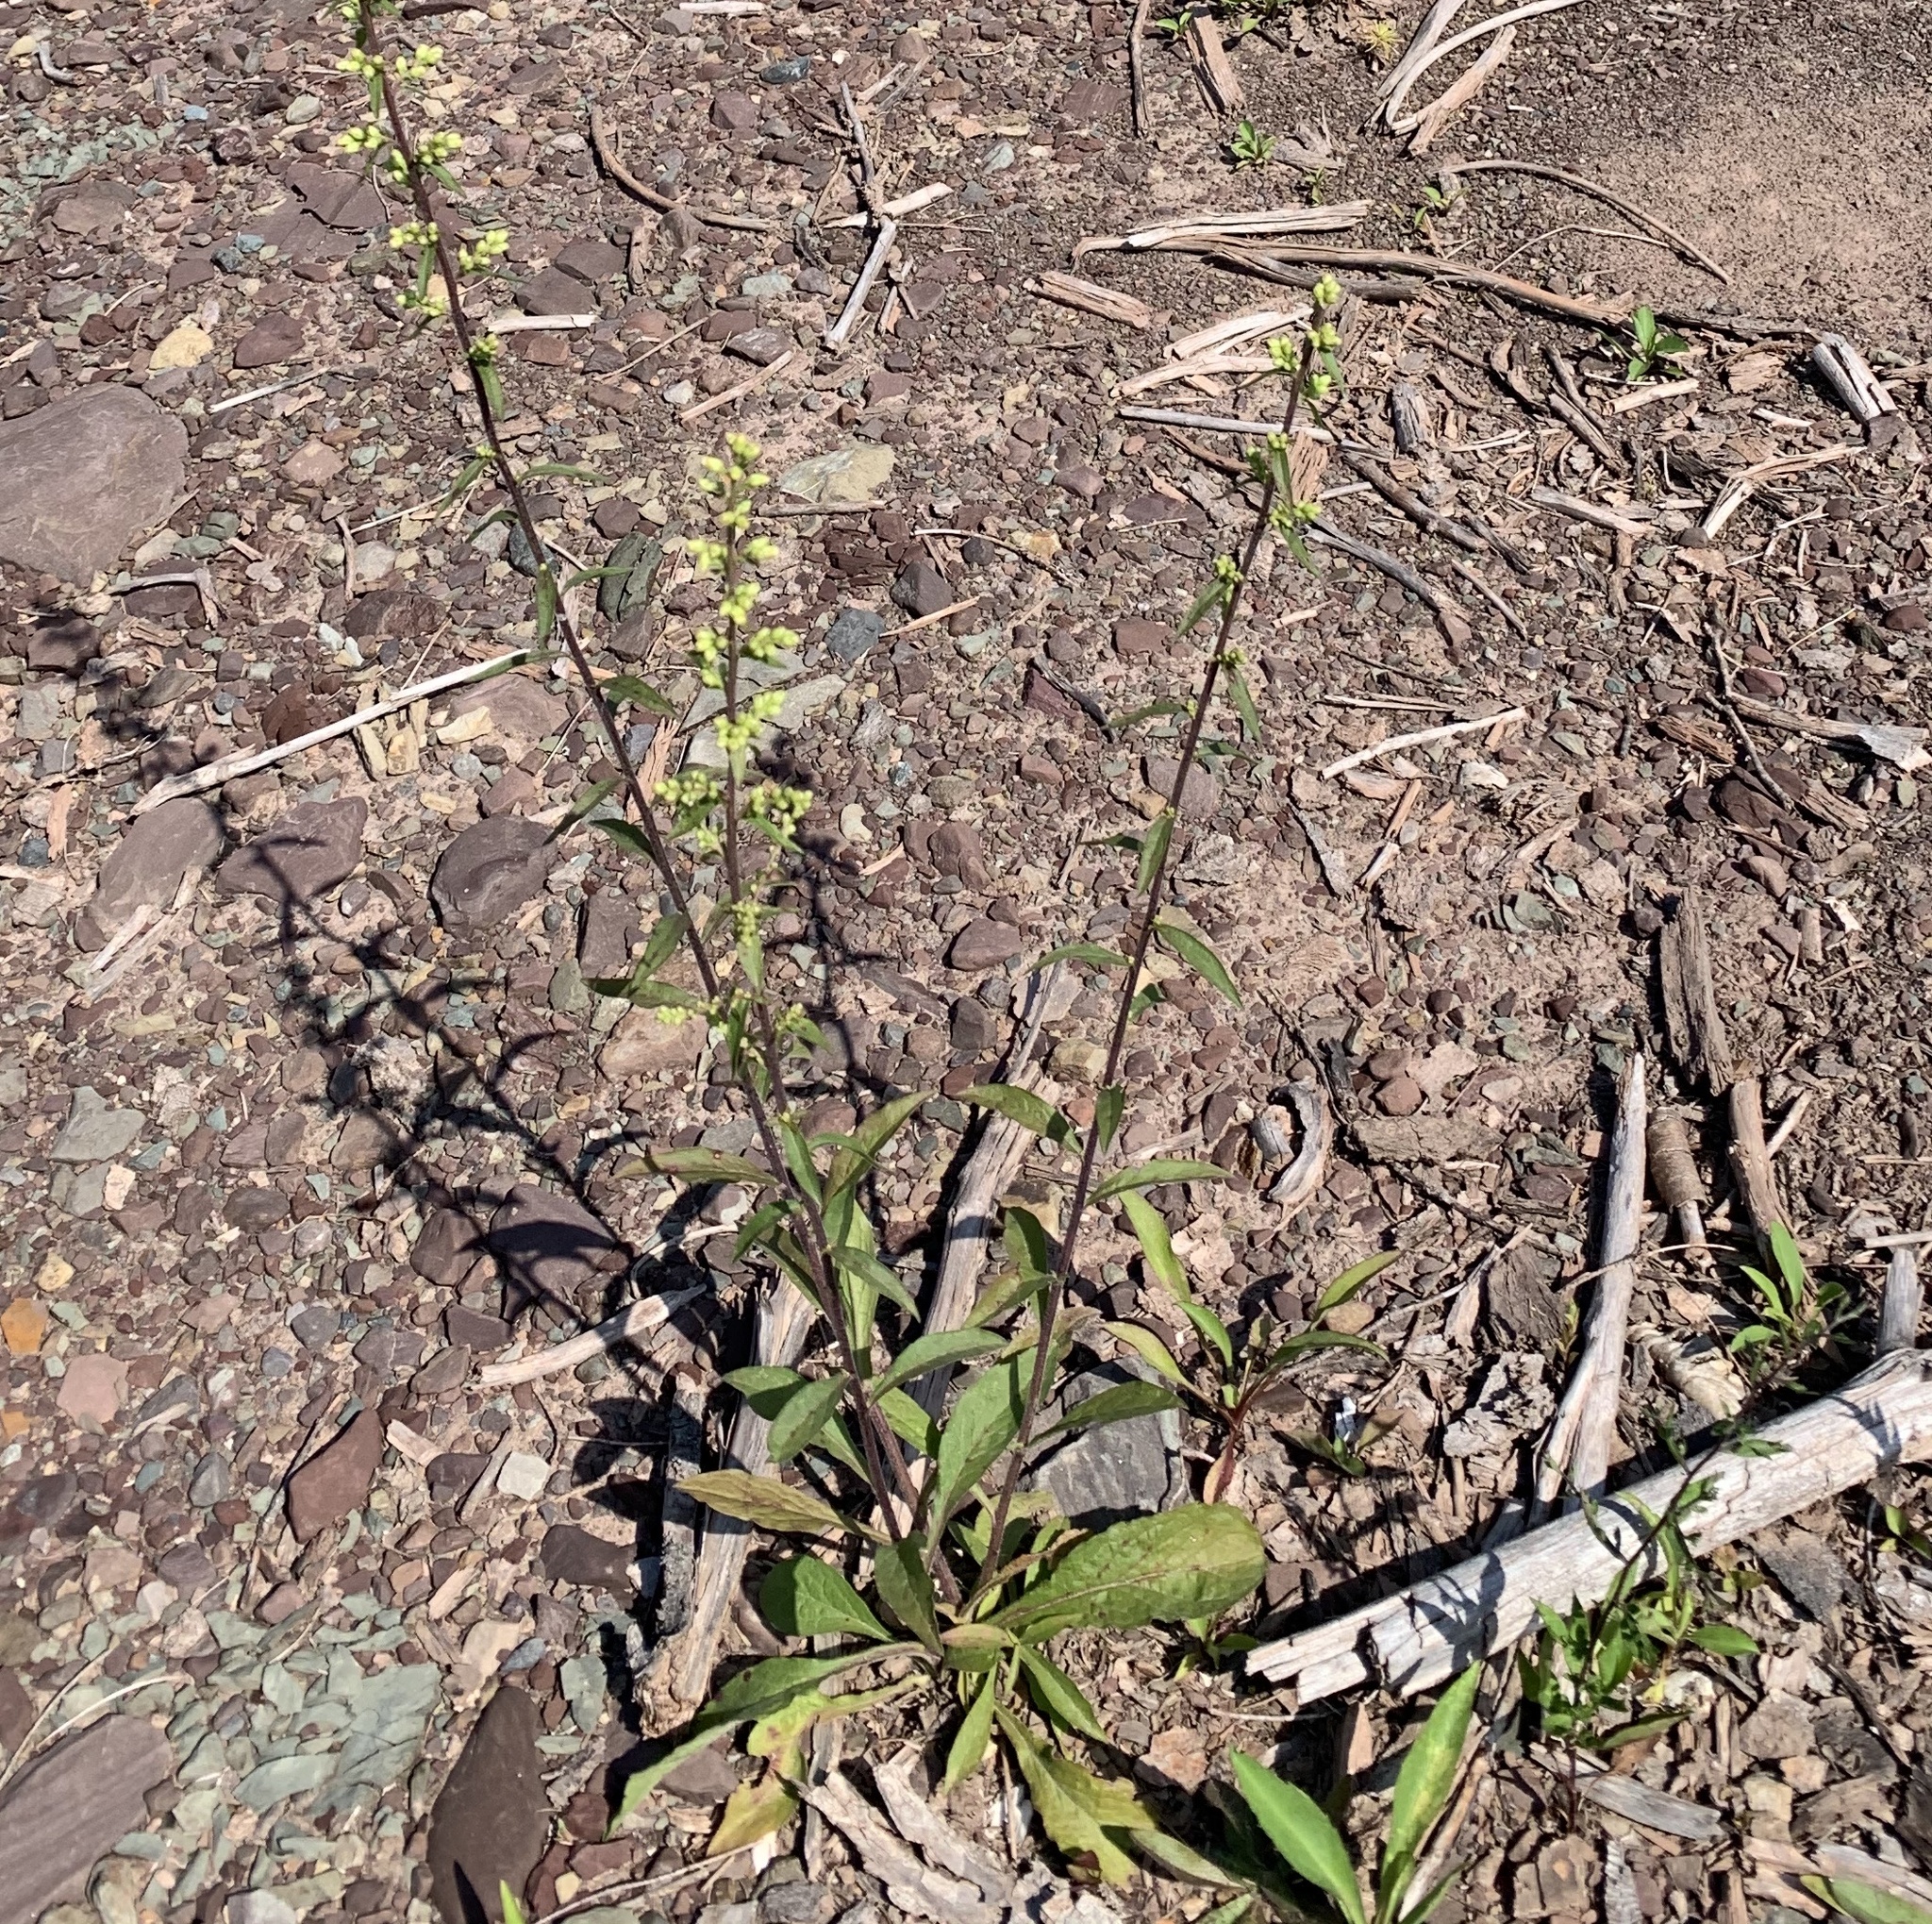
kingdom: Plantae
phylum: Tracheophyta
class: Magnoliopsida
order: Asterales
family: Asteraceae
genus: Solidago
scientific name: Solidago bicolor
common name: Silverrod
